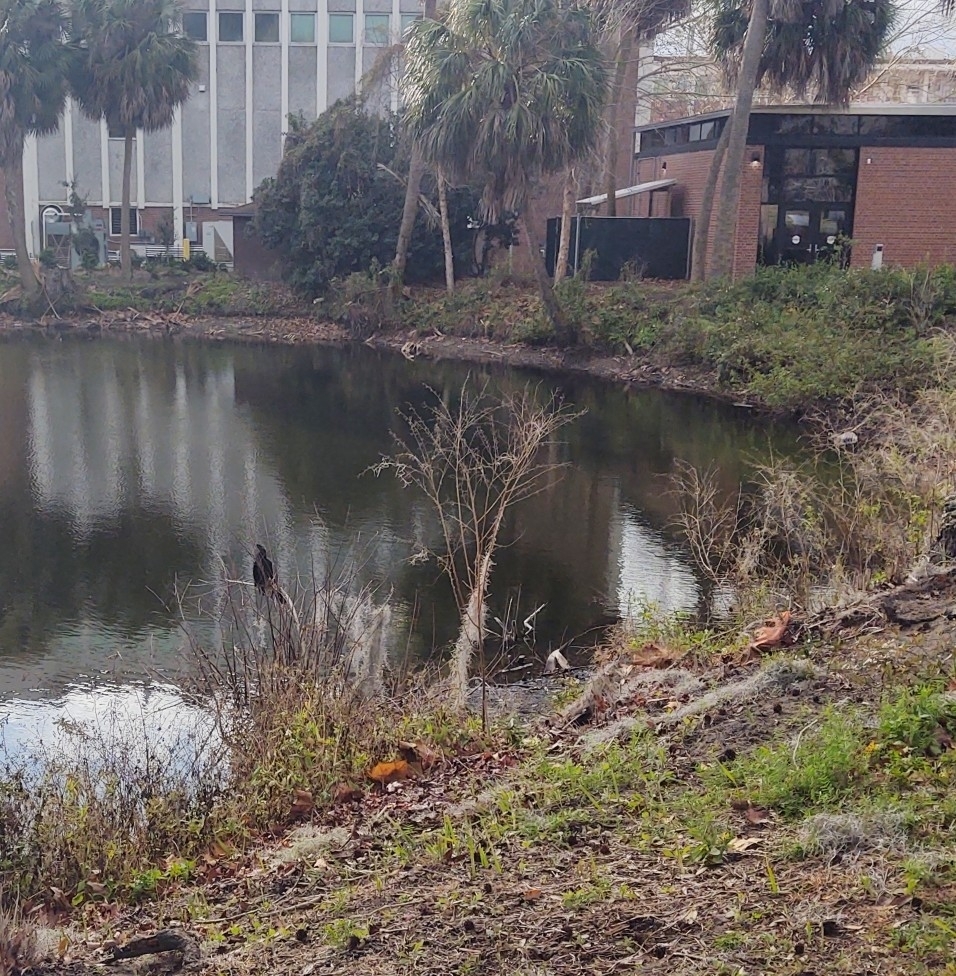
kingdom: Animalia
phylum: Chordata
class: Aves
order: Suliformes
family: Anhingidae
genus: Anhinga
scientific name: Anhinga anhinga
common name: Anhinga
